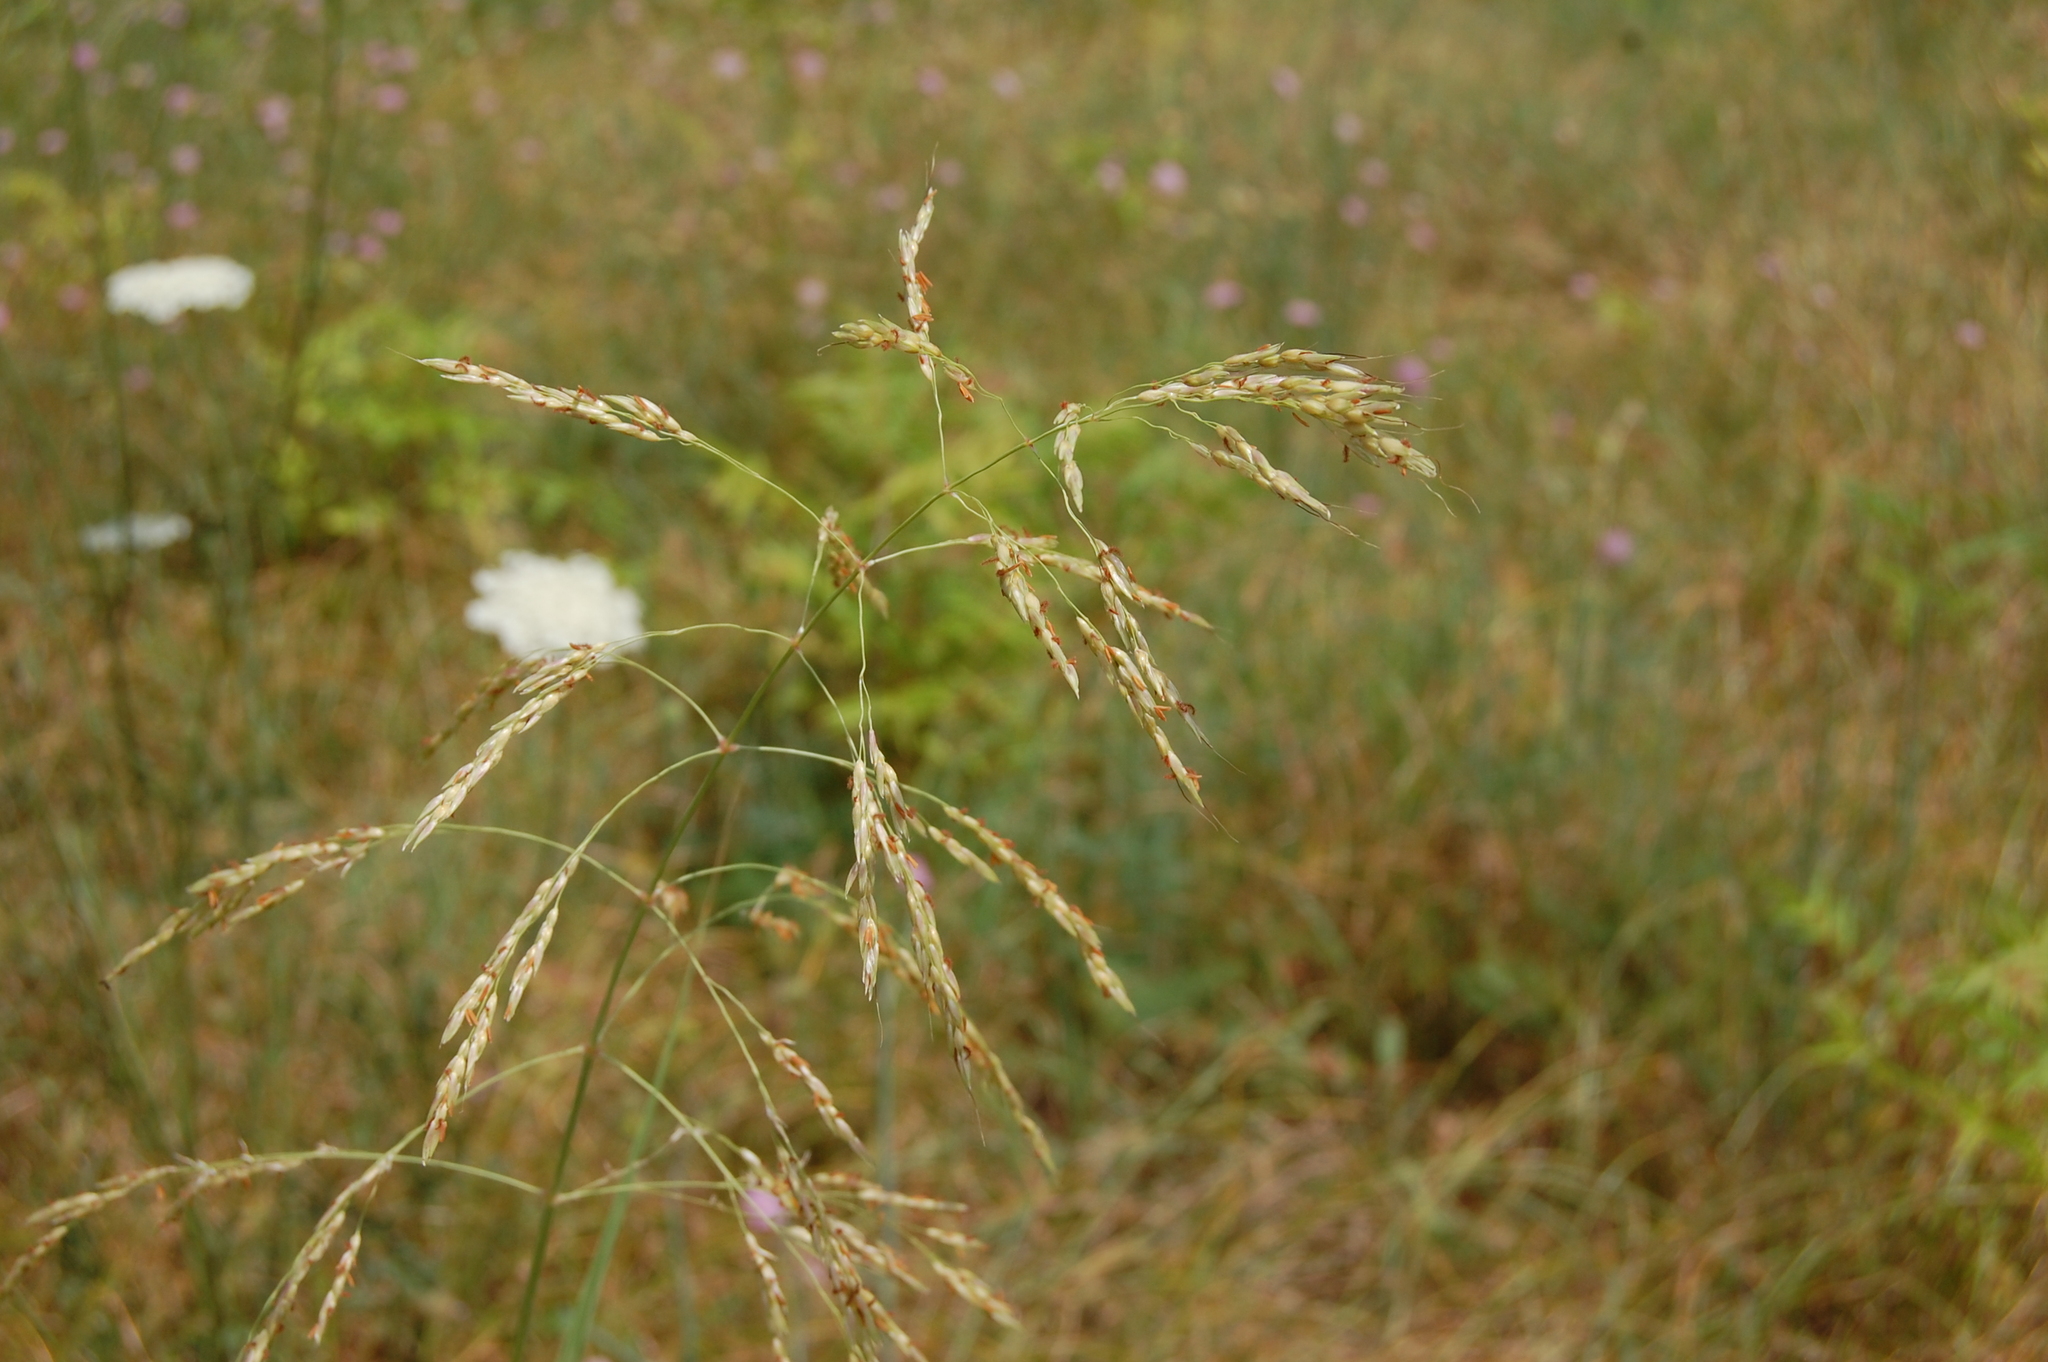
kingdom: Plantae
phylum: Tracheophyta
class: Liliopsida
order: Poales
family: Poaceae
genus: Sorghum
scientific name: Sorghum halepense
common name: Johnson-grass
